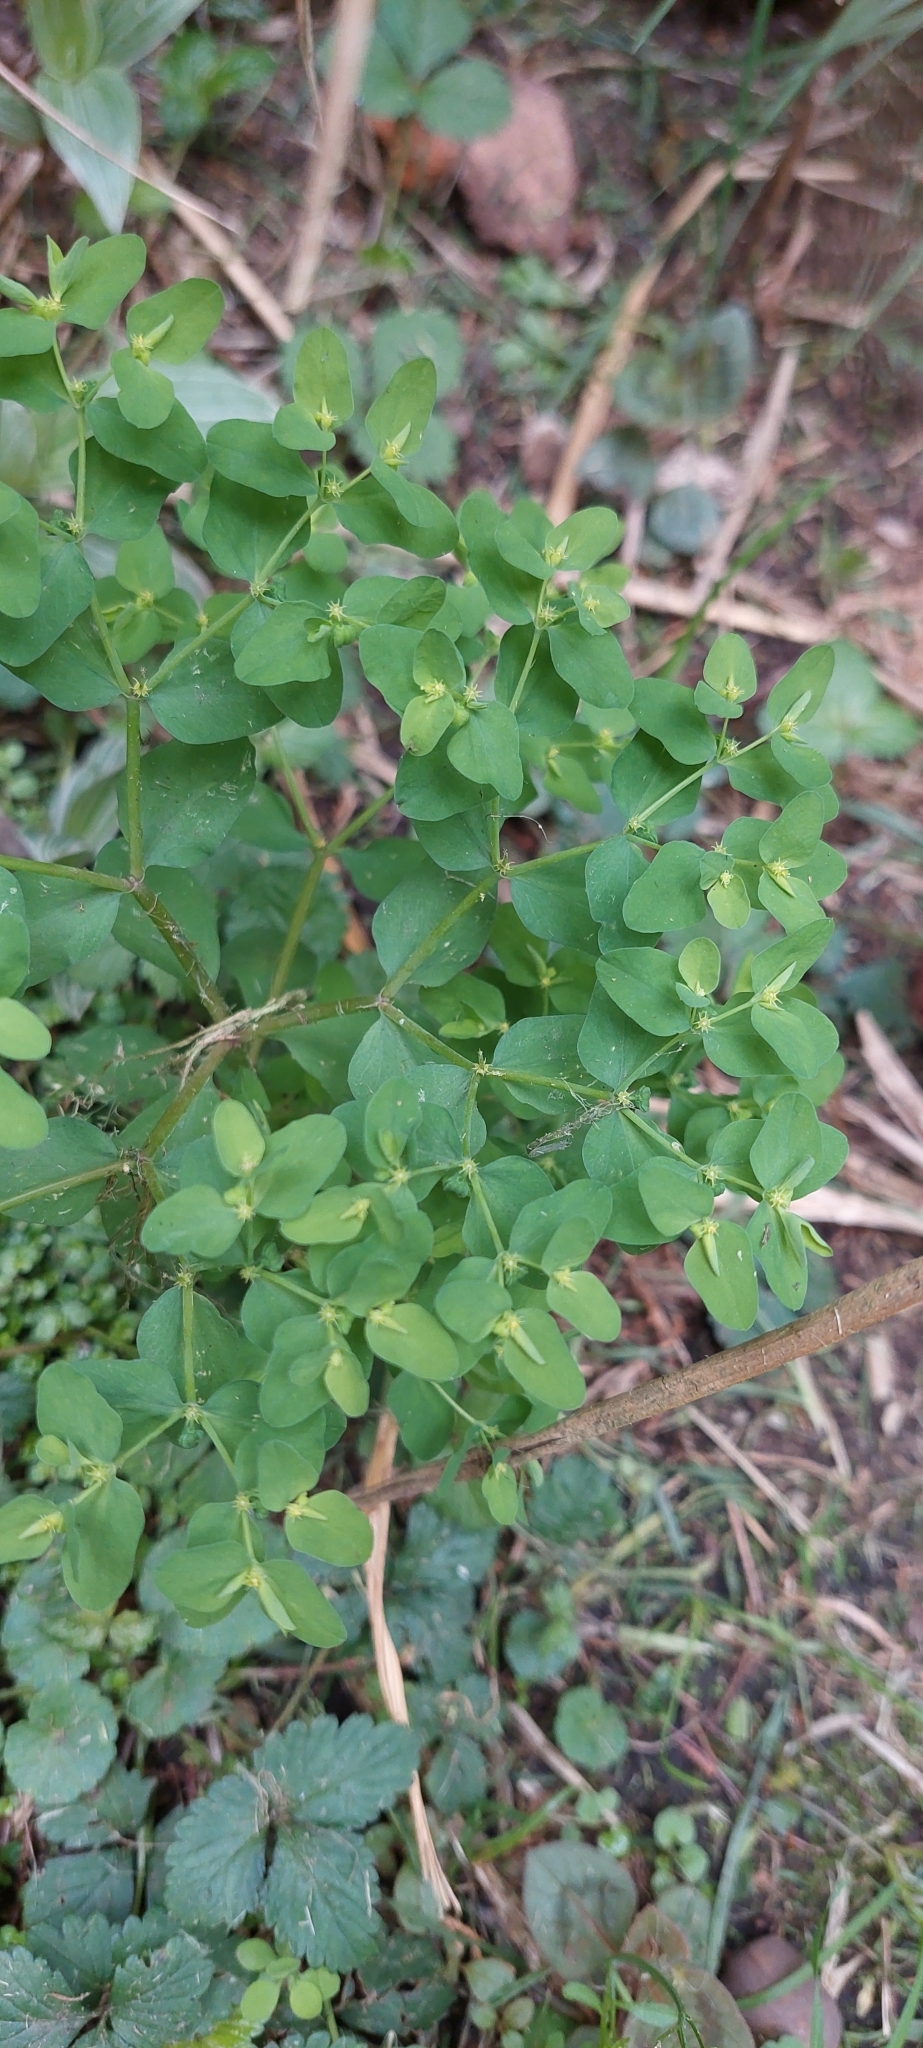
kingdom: Plantae
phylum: Tracheophyta
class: Magnoliopsida
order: Malpighiales
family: Euphorbiaceae
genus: Euphorbia
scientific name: Euphorbia peplus
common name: Petty spurge
